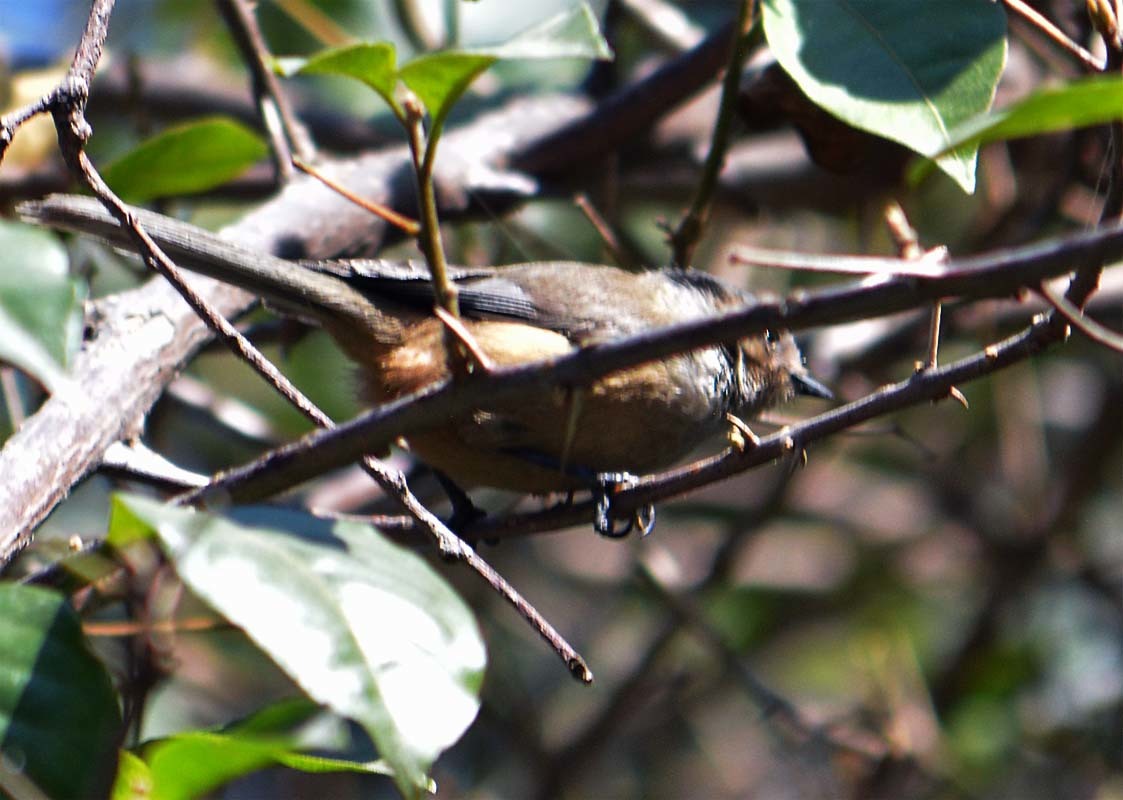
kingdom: Animalia
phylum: Chordata
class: Aves
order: Passeriformes
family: Aegithalidae
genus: Psaltriparus
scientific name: Psaltriparus minimus
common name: American bushtit
